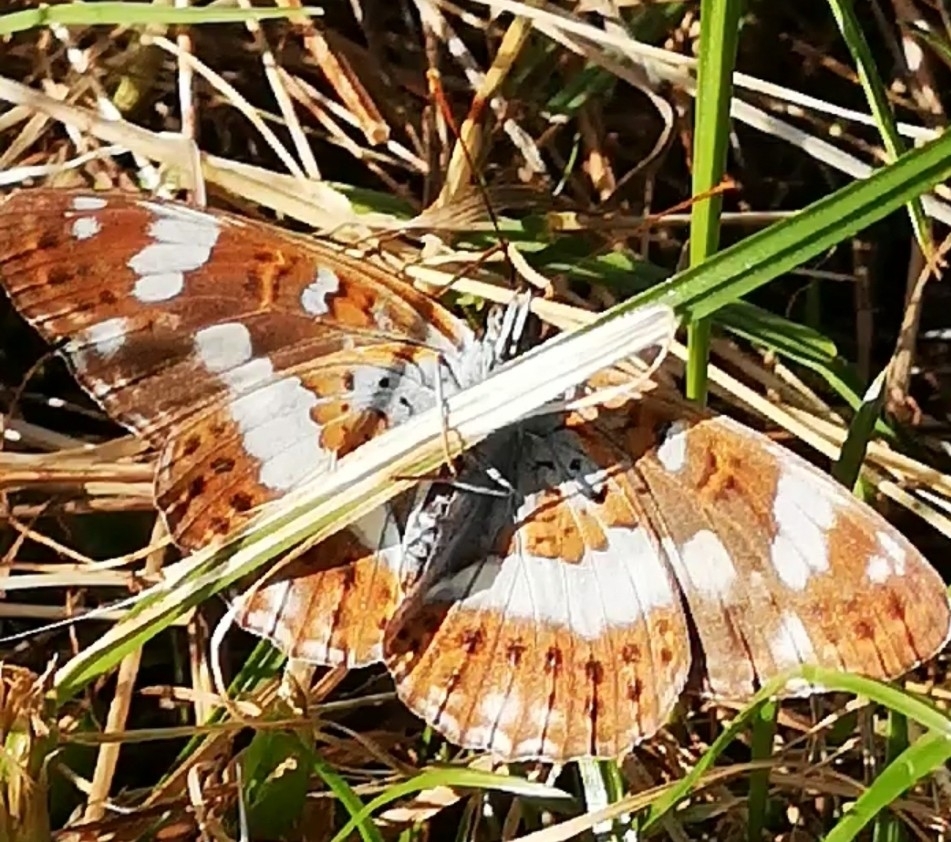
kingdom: Animalia
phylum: Arthropoda
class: Insecta
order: Lepidoptera
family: Nymphalidae
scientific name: Nymphalidae
